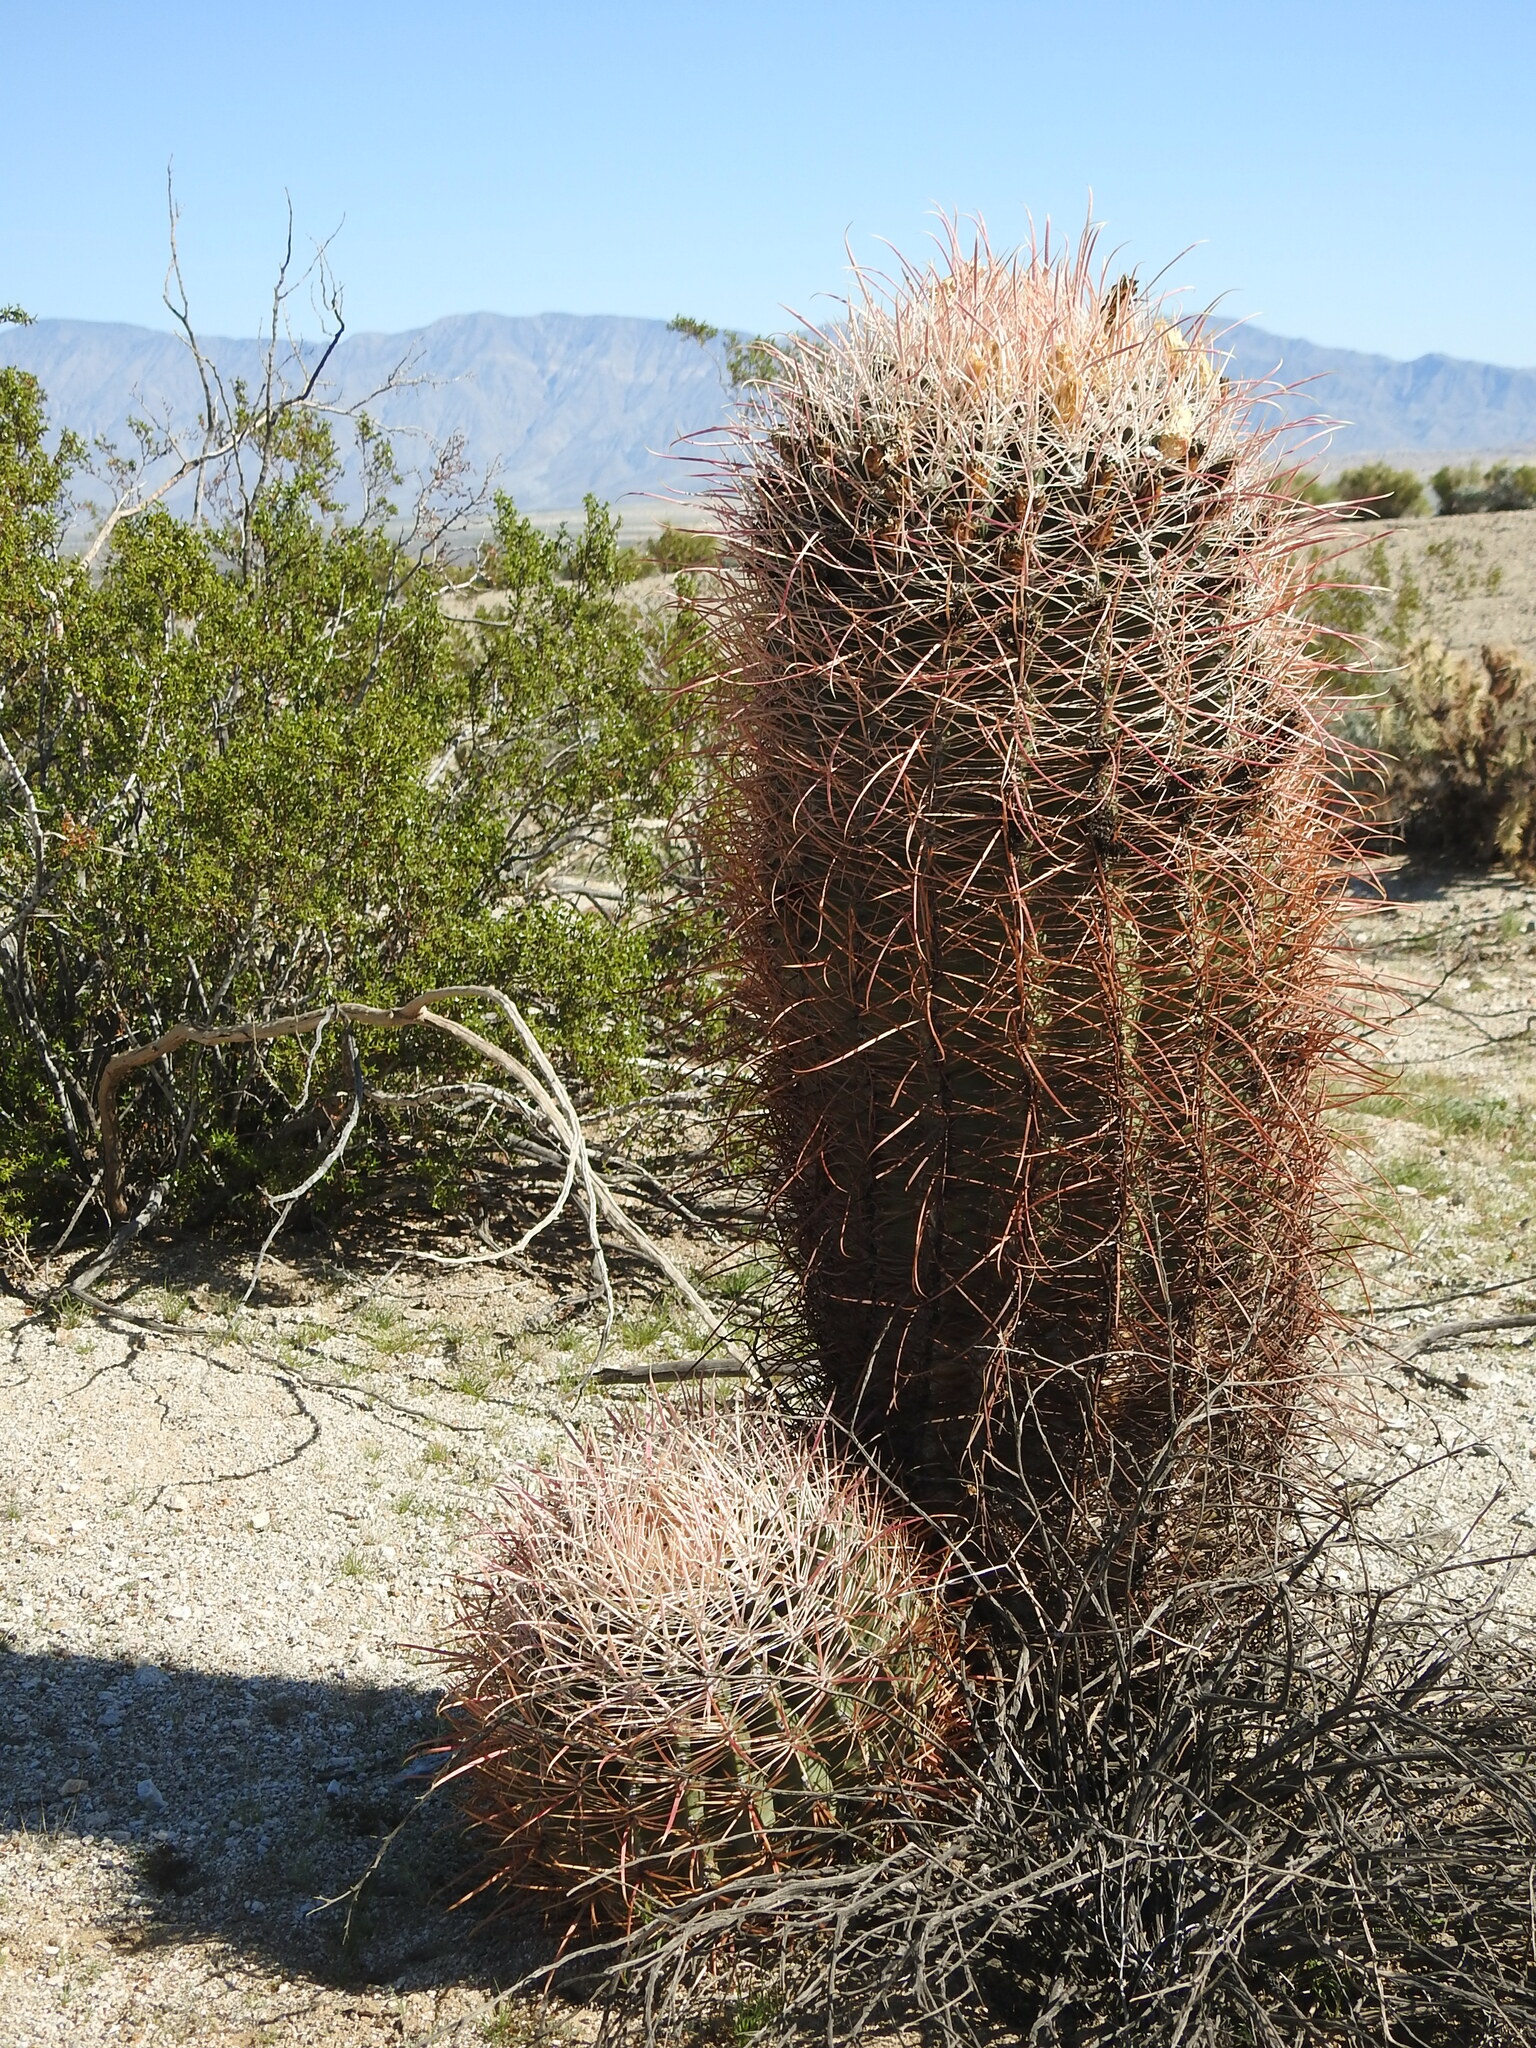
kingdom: Plantae
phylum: Tracheophyta
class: Magnoliopsida
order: Caryophyllales
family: Cactaceae
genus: Ferocactus
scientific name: Ferocactus cylindraceus
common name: California barrel cactus
